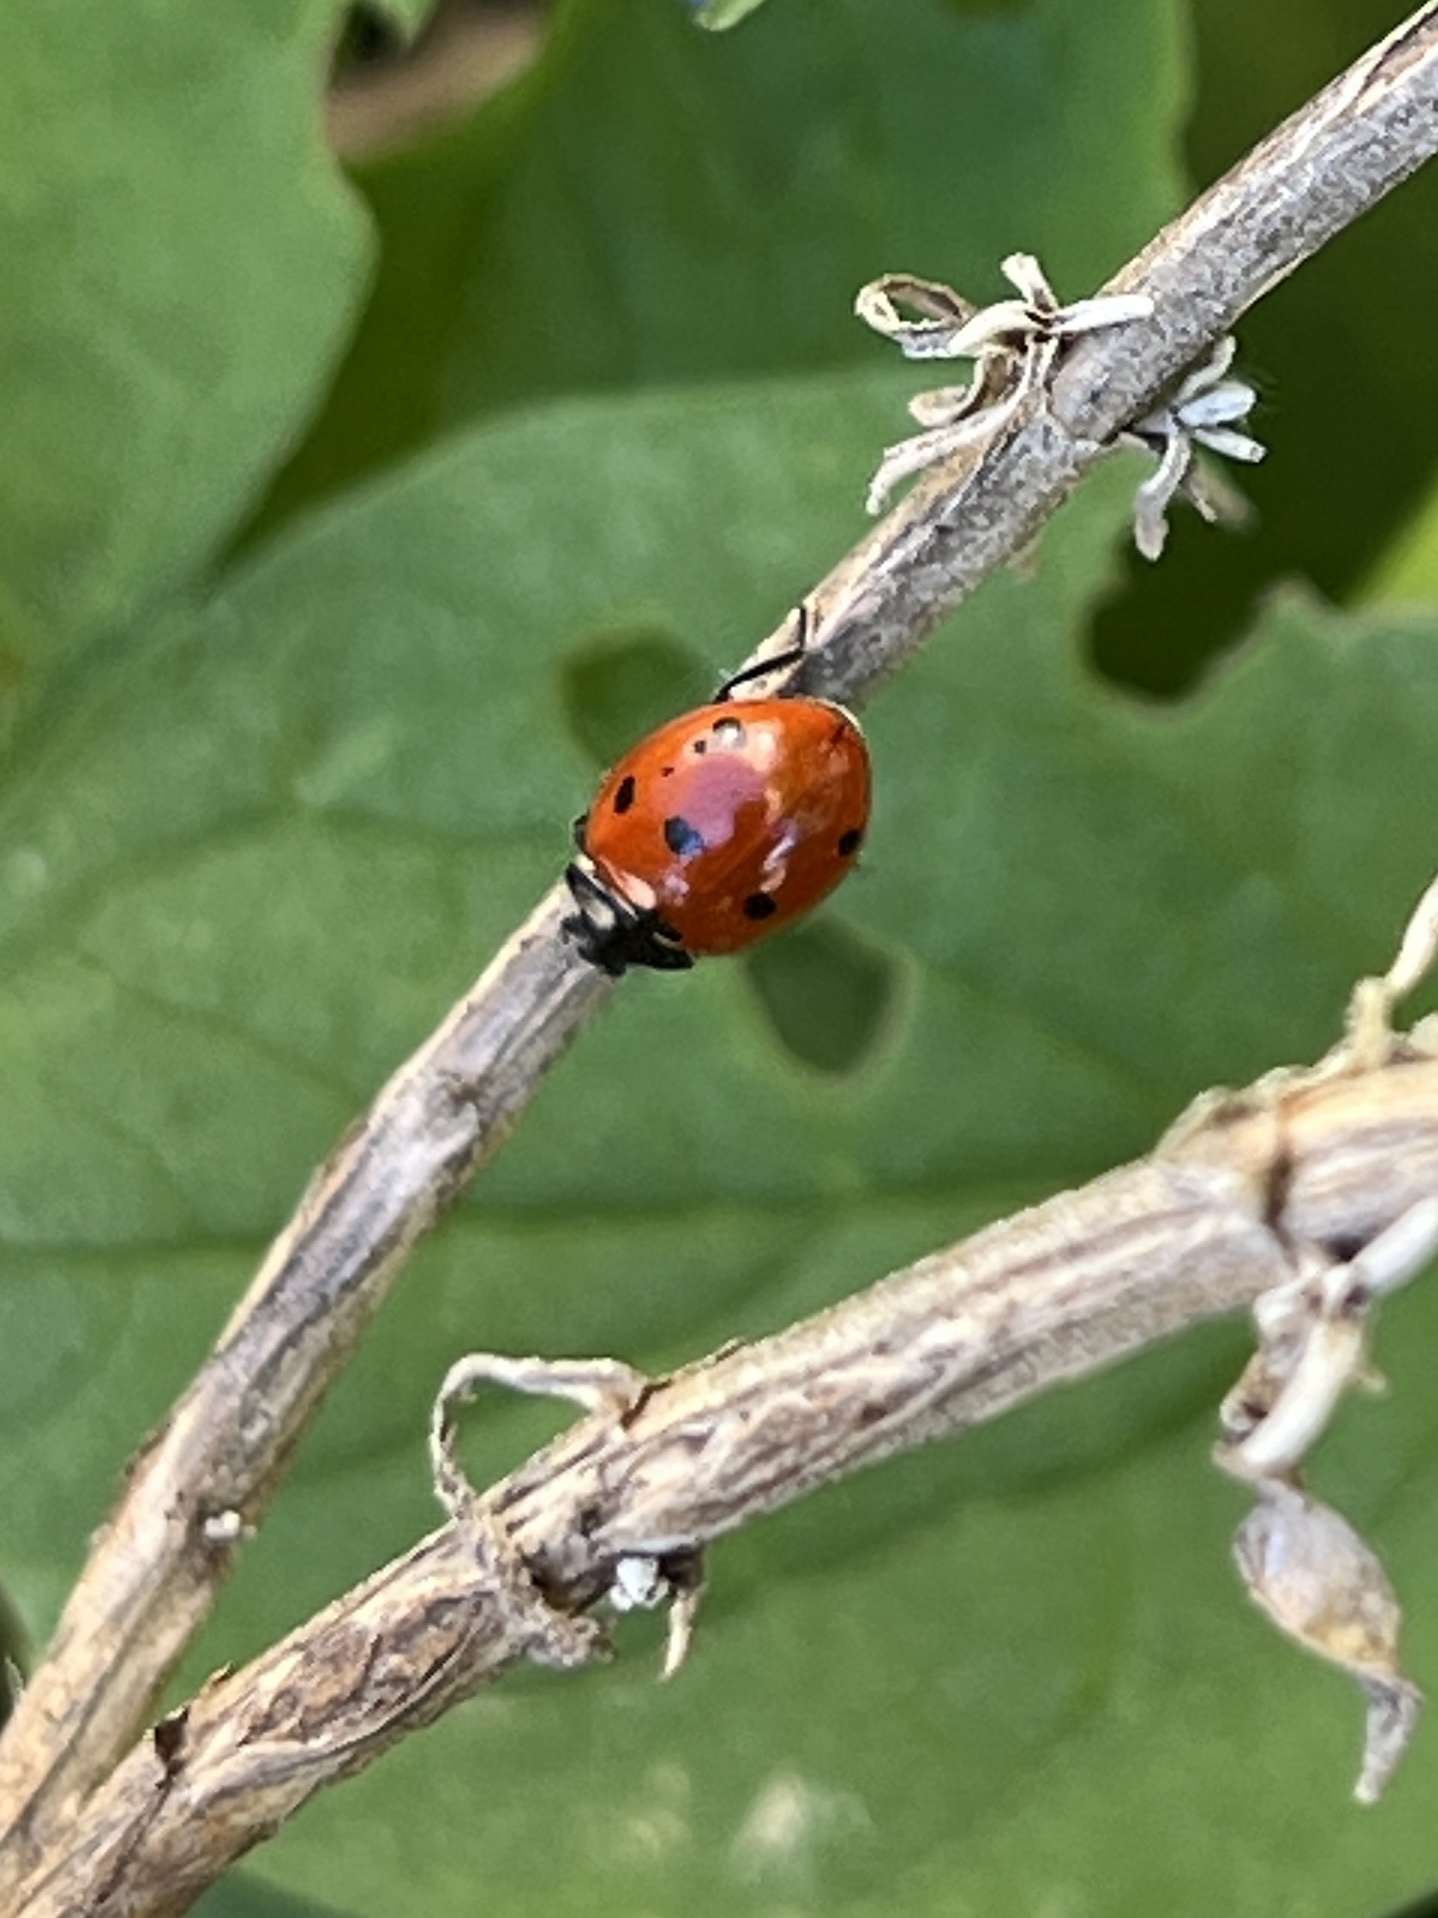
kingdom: Animalia
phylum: Arthropoda
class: Insecta
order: Coleoptera
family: Coccinellidae
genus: Coccinella
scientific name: Coccinella septempunctata
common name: Sevenspotted lady beetle
